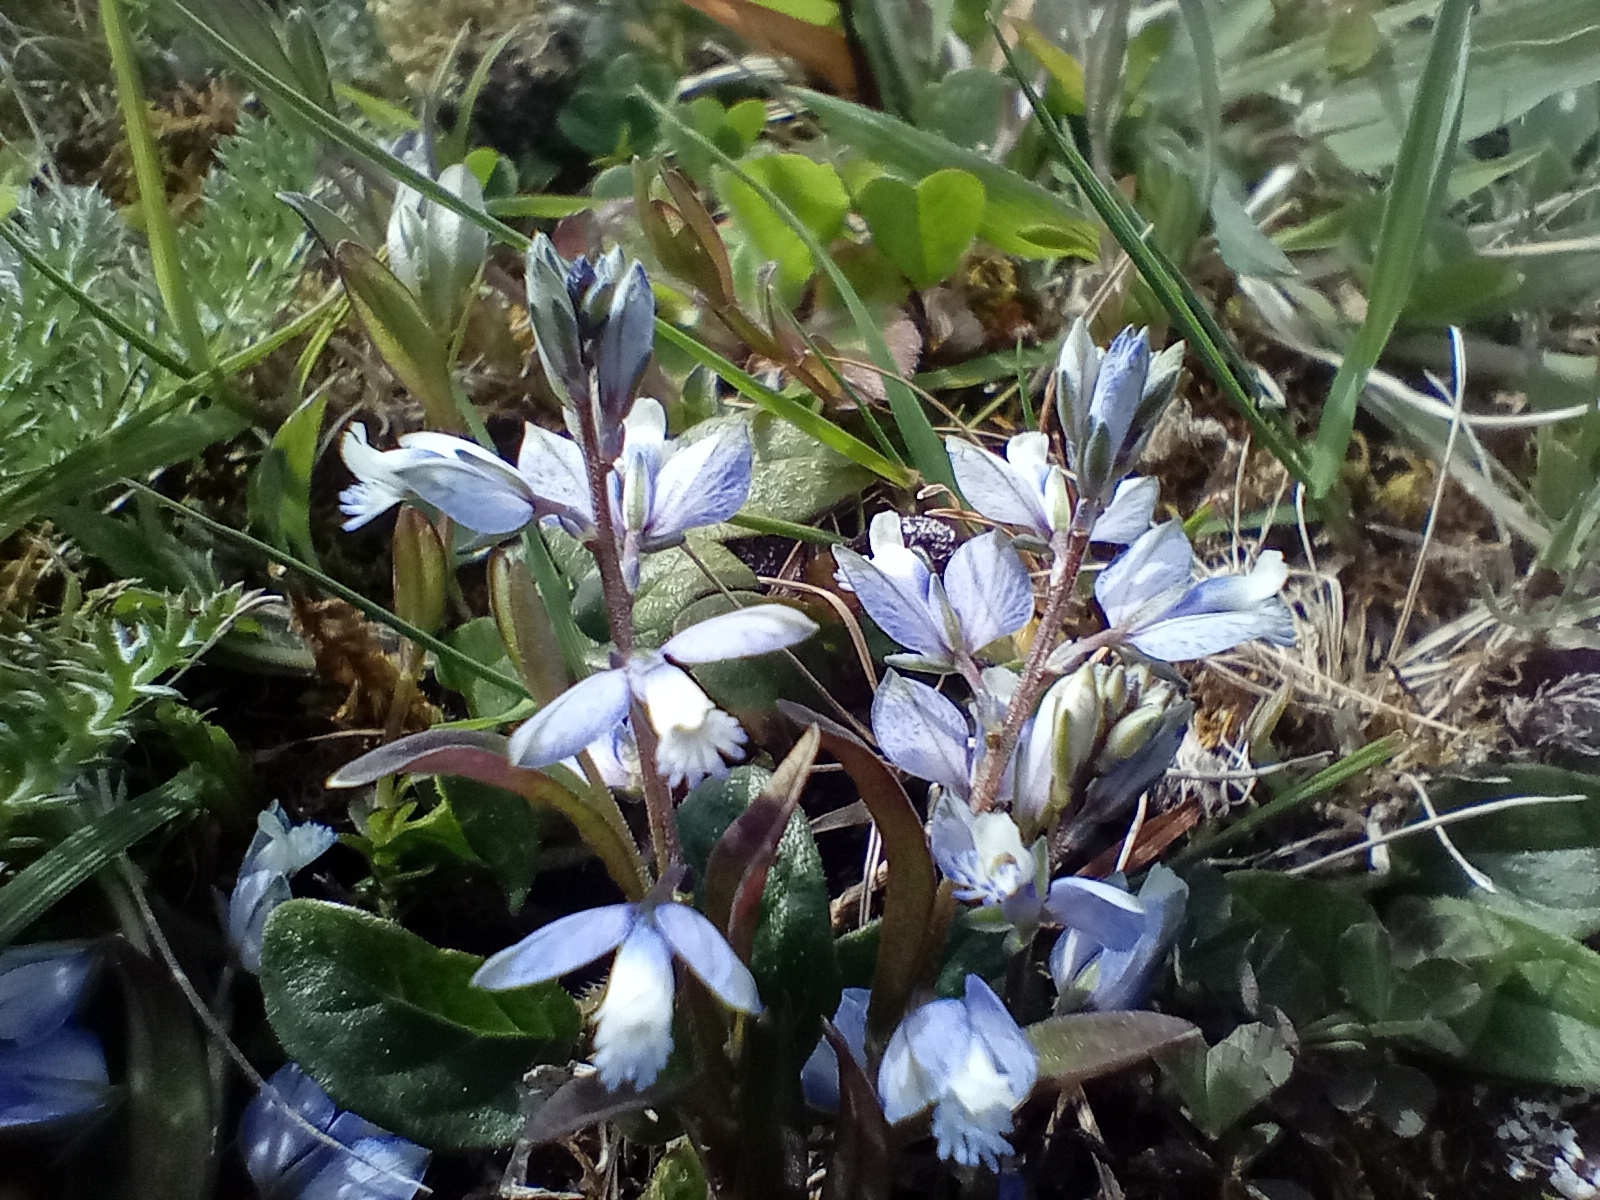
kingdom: Plantae
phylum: Tracheophyta
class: Magnoliopsida
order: Fabales
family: Polygalaceae
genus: Polygala
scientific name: Polygala serpyllifolia
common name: Heath milkwort
